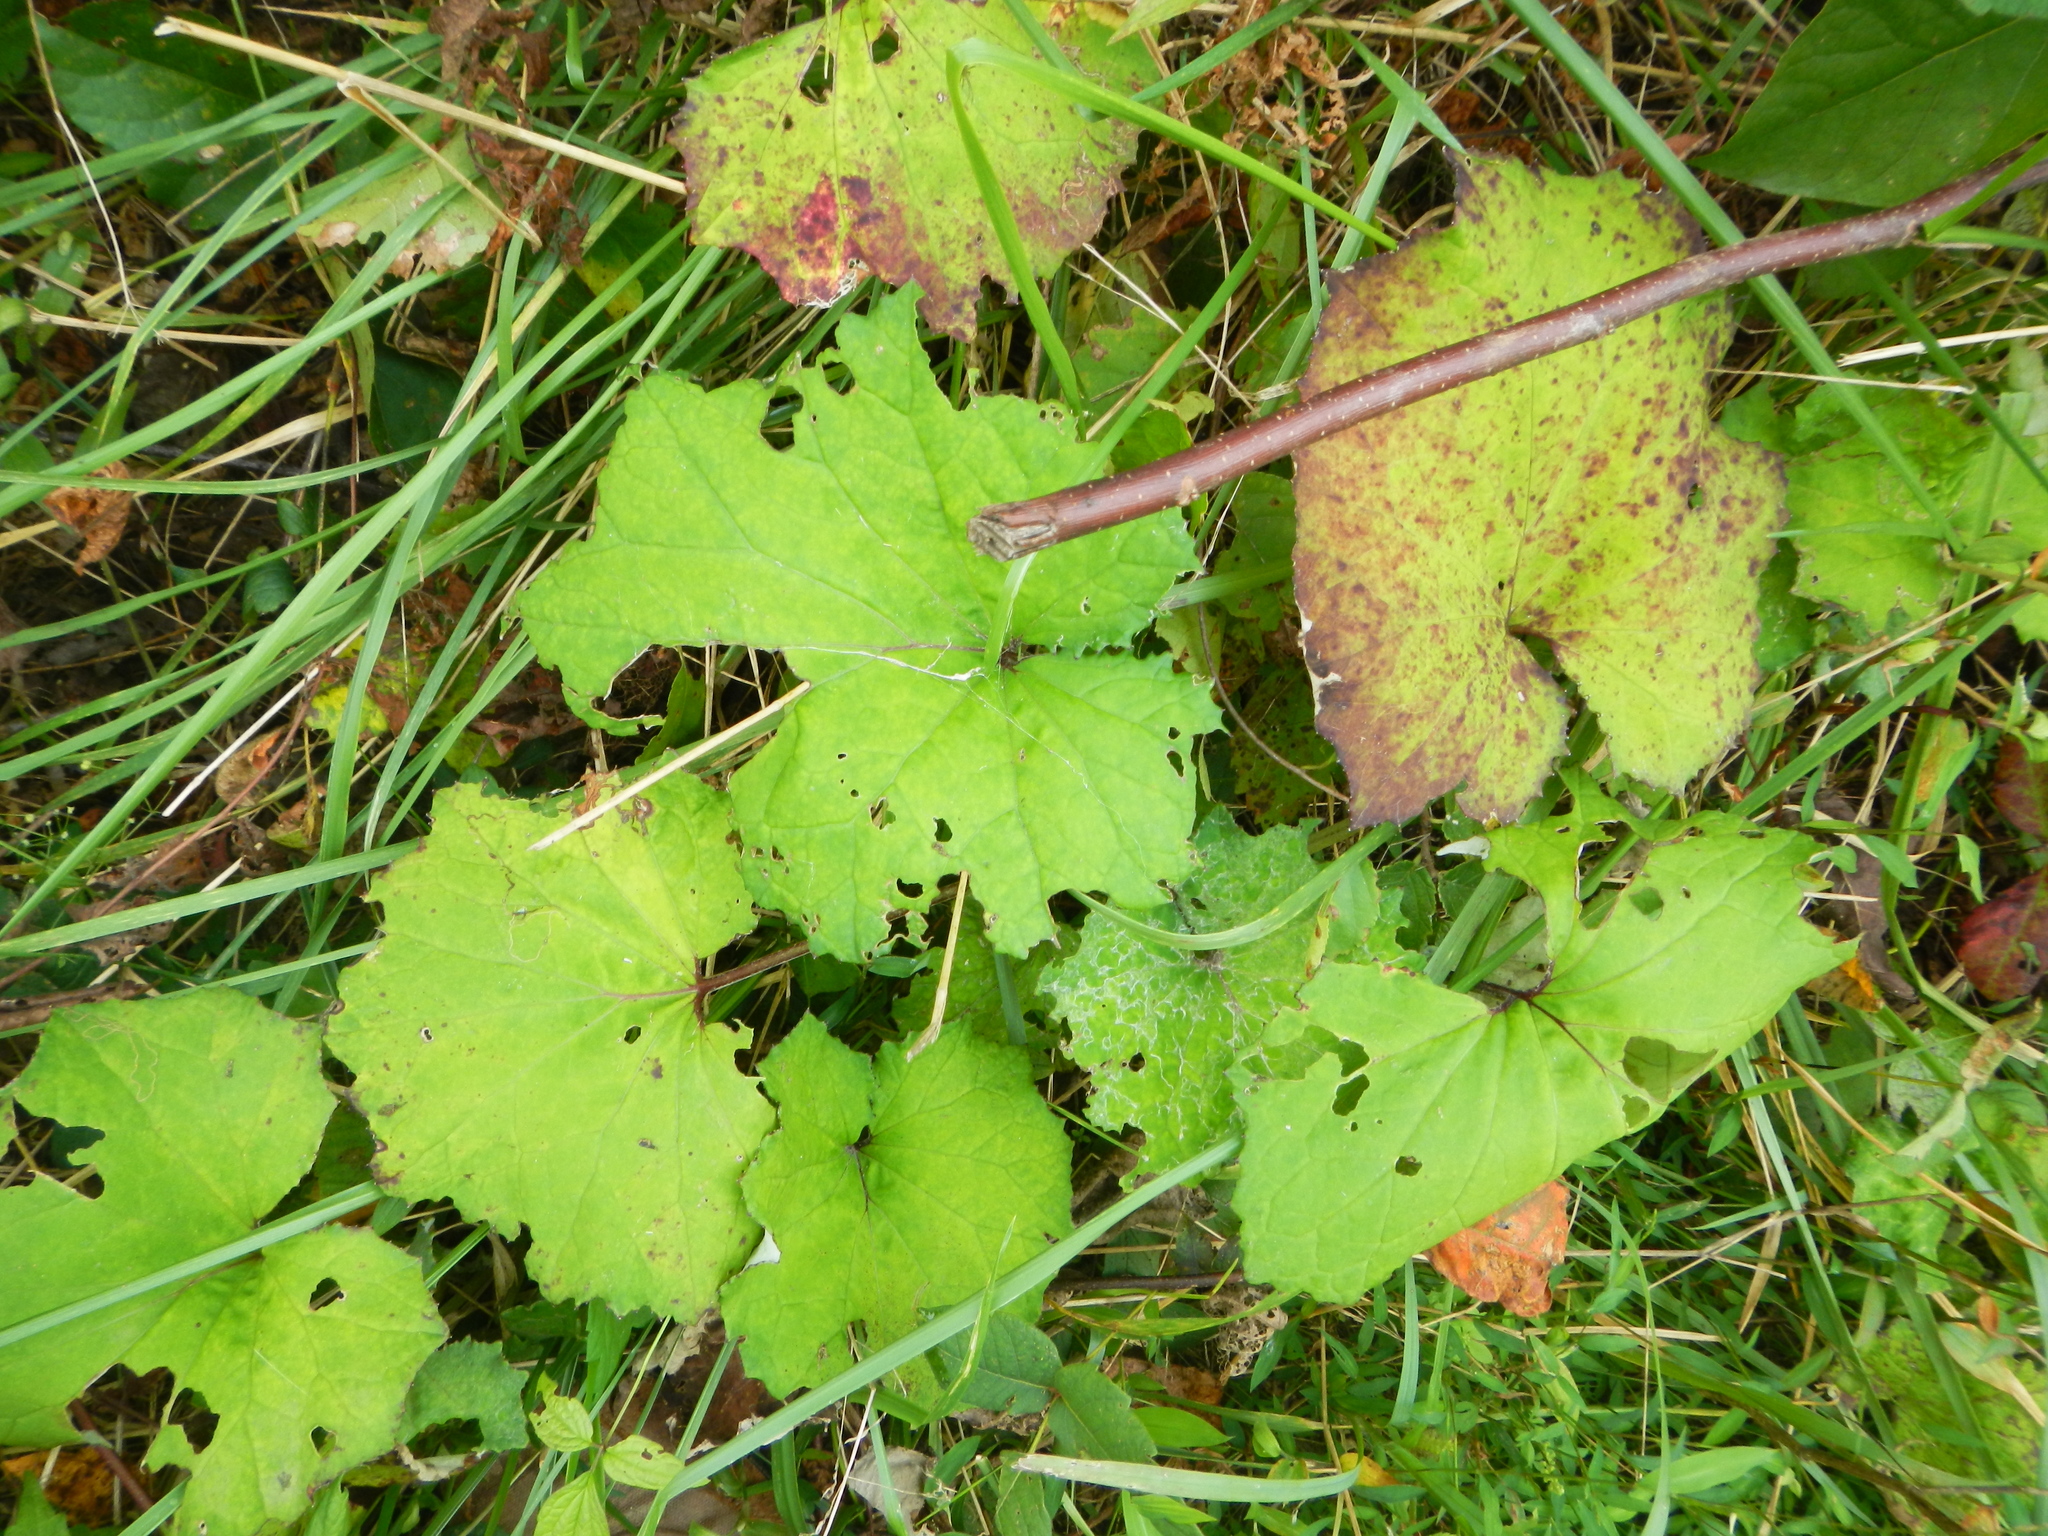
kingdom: Plantae
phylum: Tracheophyta
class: Magnoliopsida
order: Asterales
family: Asteraceae
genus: Tussilago
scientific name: Tussilago farfara
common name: Coltsfoot
